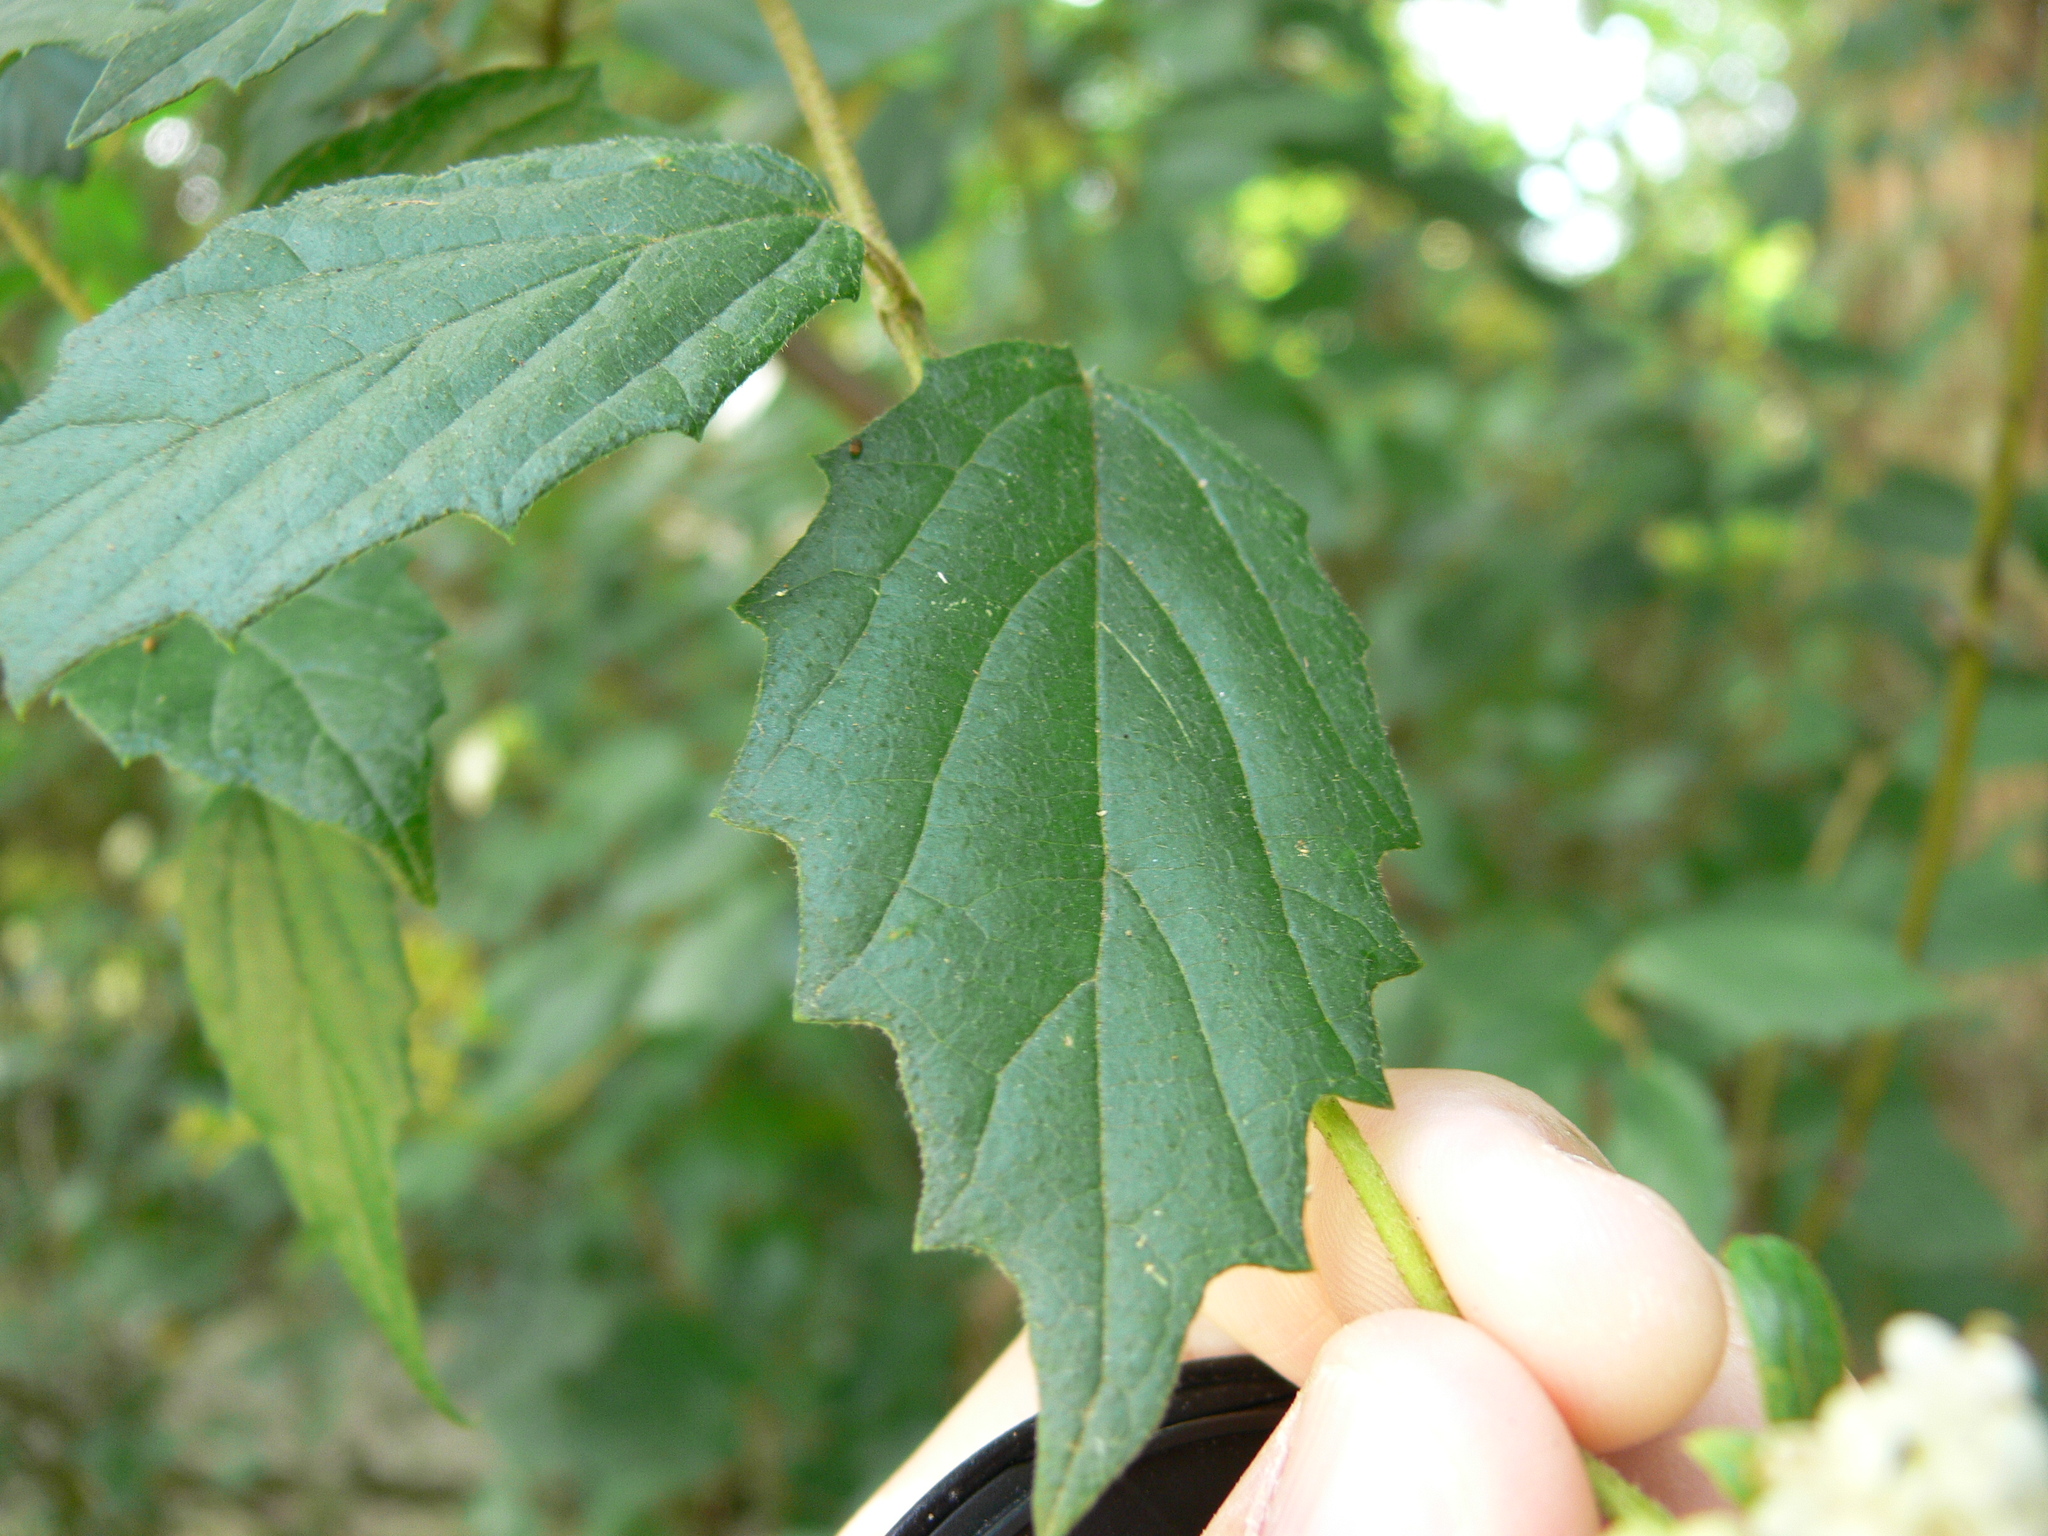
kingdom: Plantae
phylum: Tracheophyta
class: Magnoliopsida
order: Dipsacales
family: Viburnaceae
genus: Viburnum
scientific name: Viburnum scabrellum
